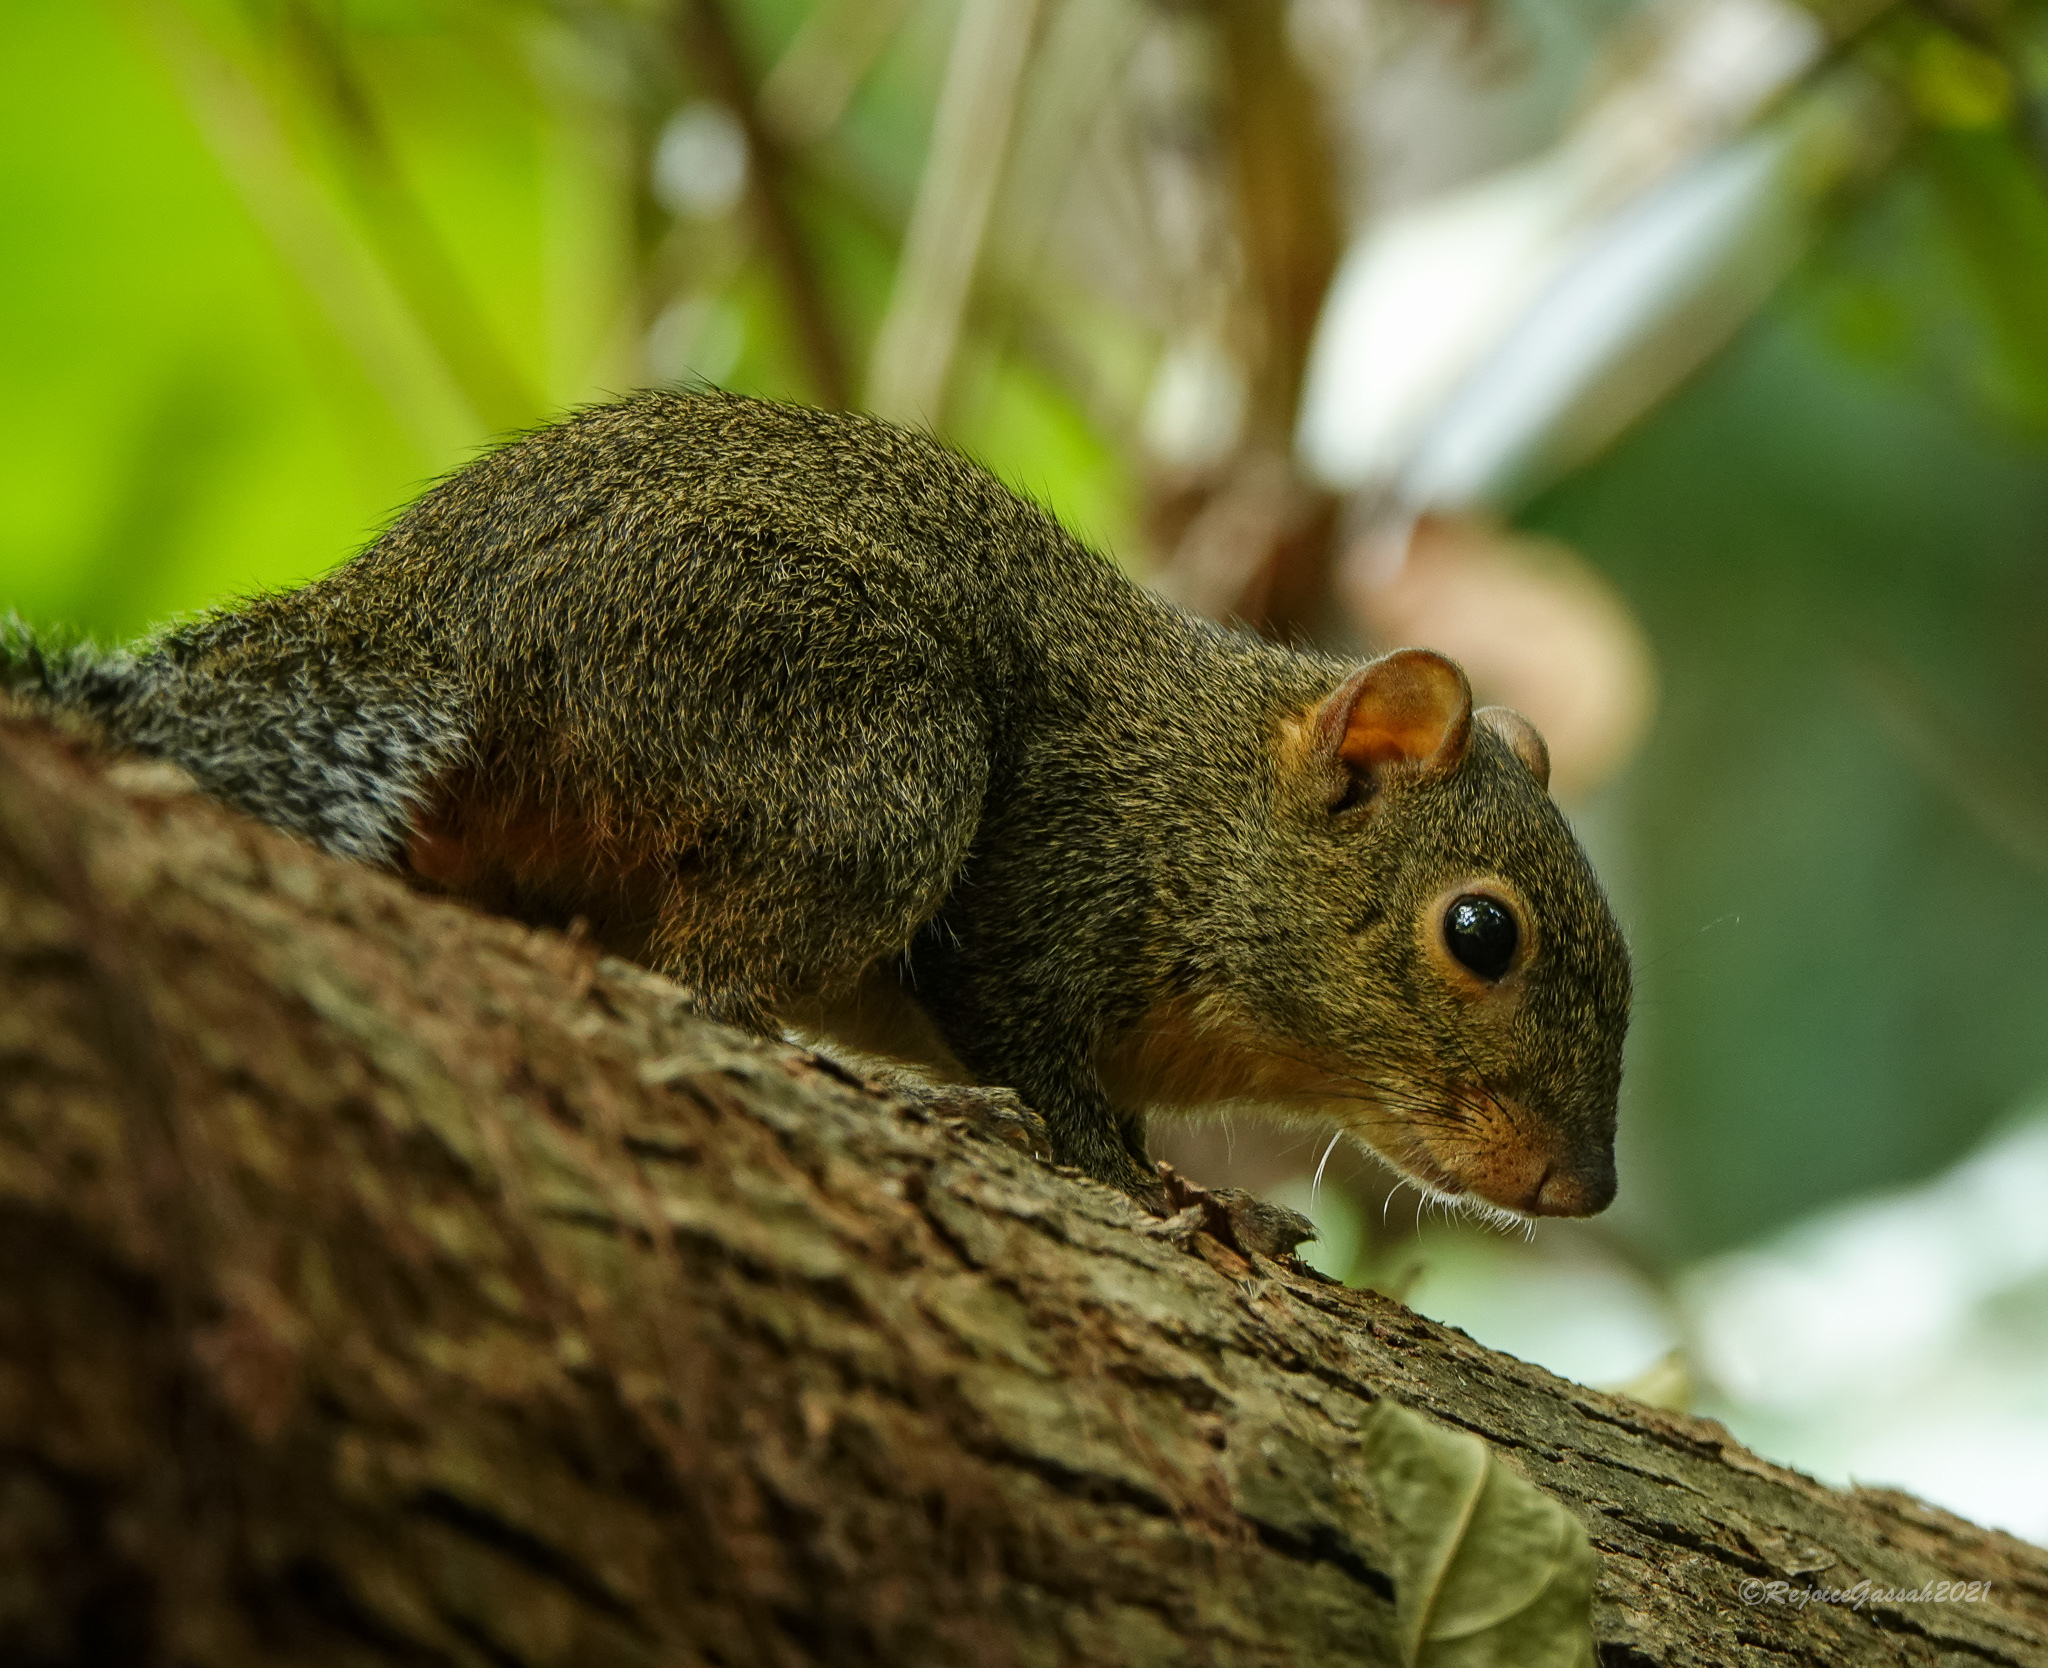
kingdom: Animalia
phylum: Chordata
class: Mammalia
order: Rodentia
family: Sciuridae
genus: Dremomys
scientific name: Dremomys lokriah
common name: Orange-bellied himalayan squirrel
